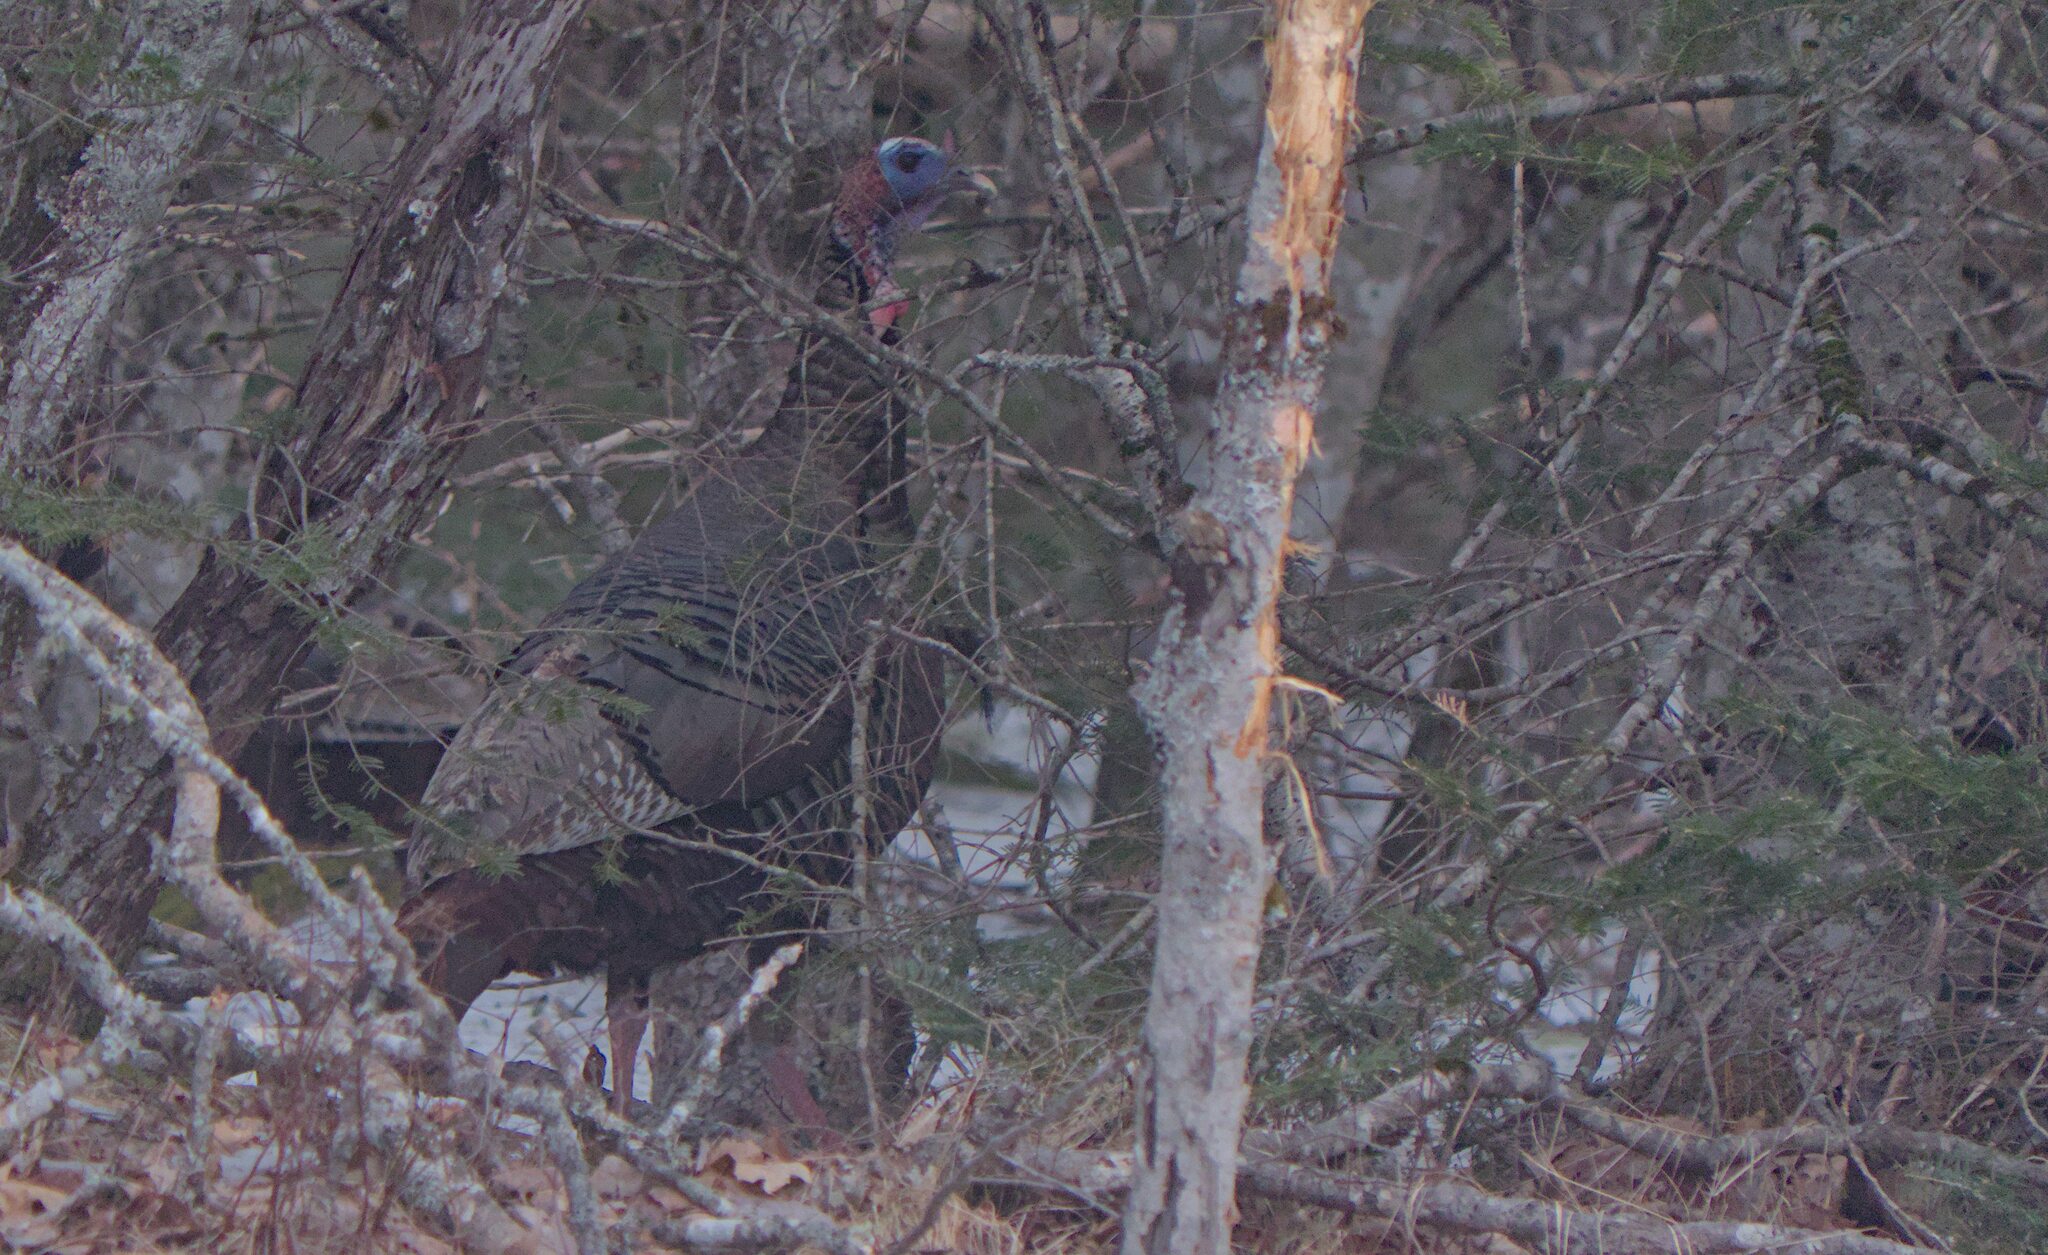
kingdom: Animalia
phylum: Chordata
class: Aves
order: Galliformes
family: Phasianidae
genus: Meleagris
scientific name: Meleagris gallopavo
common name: Wild turkey
